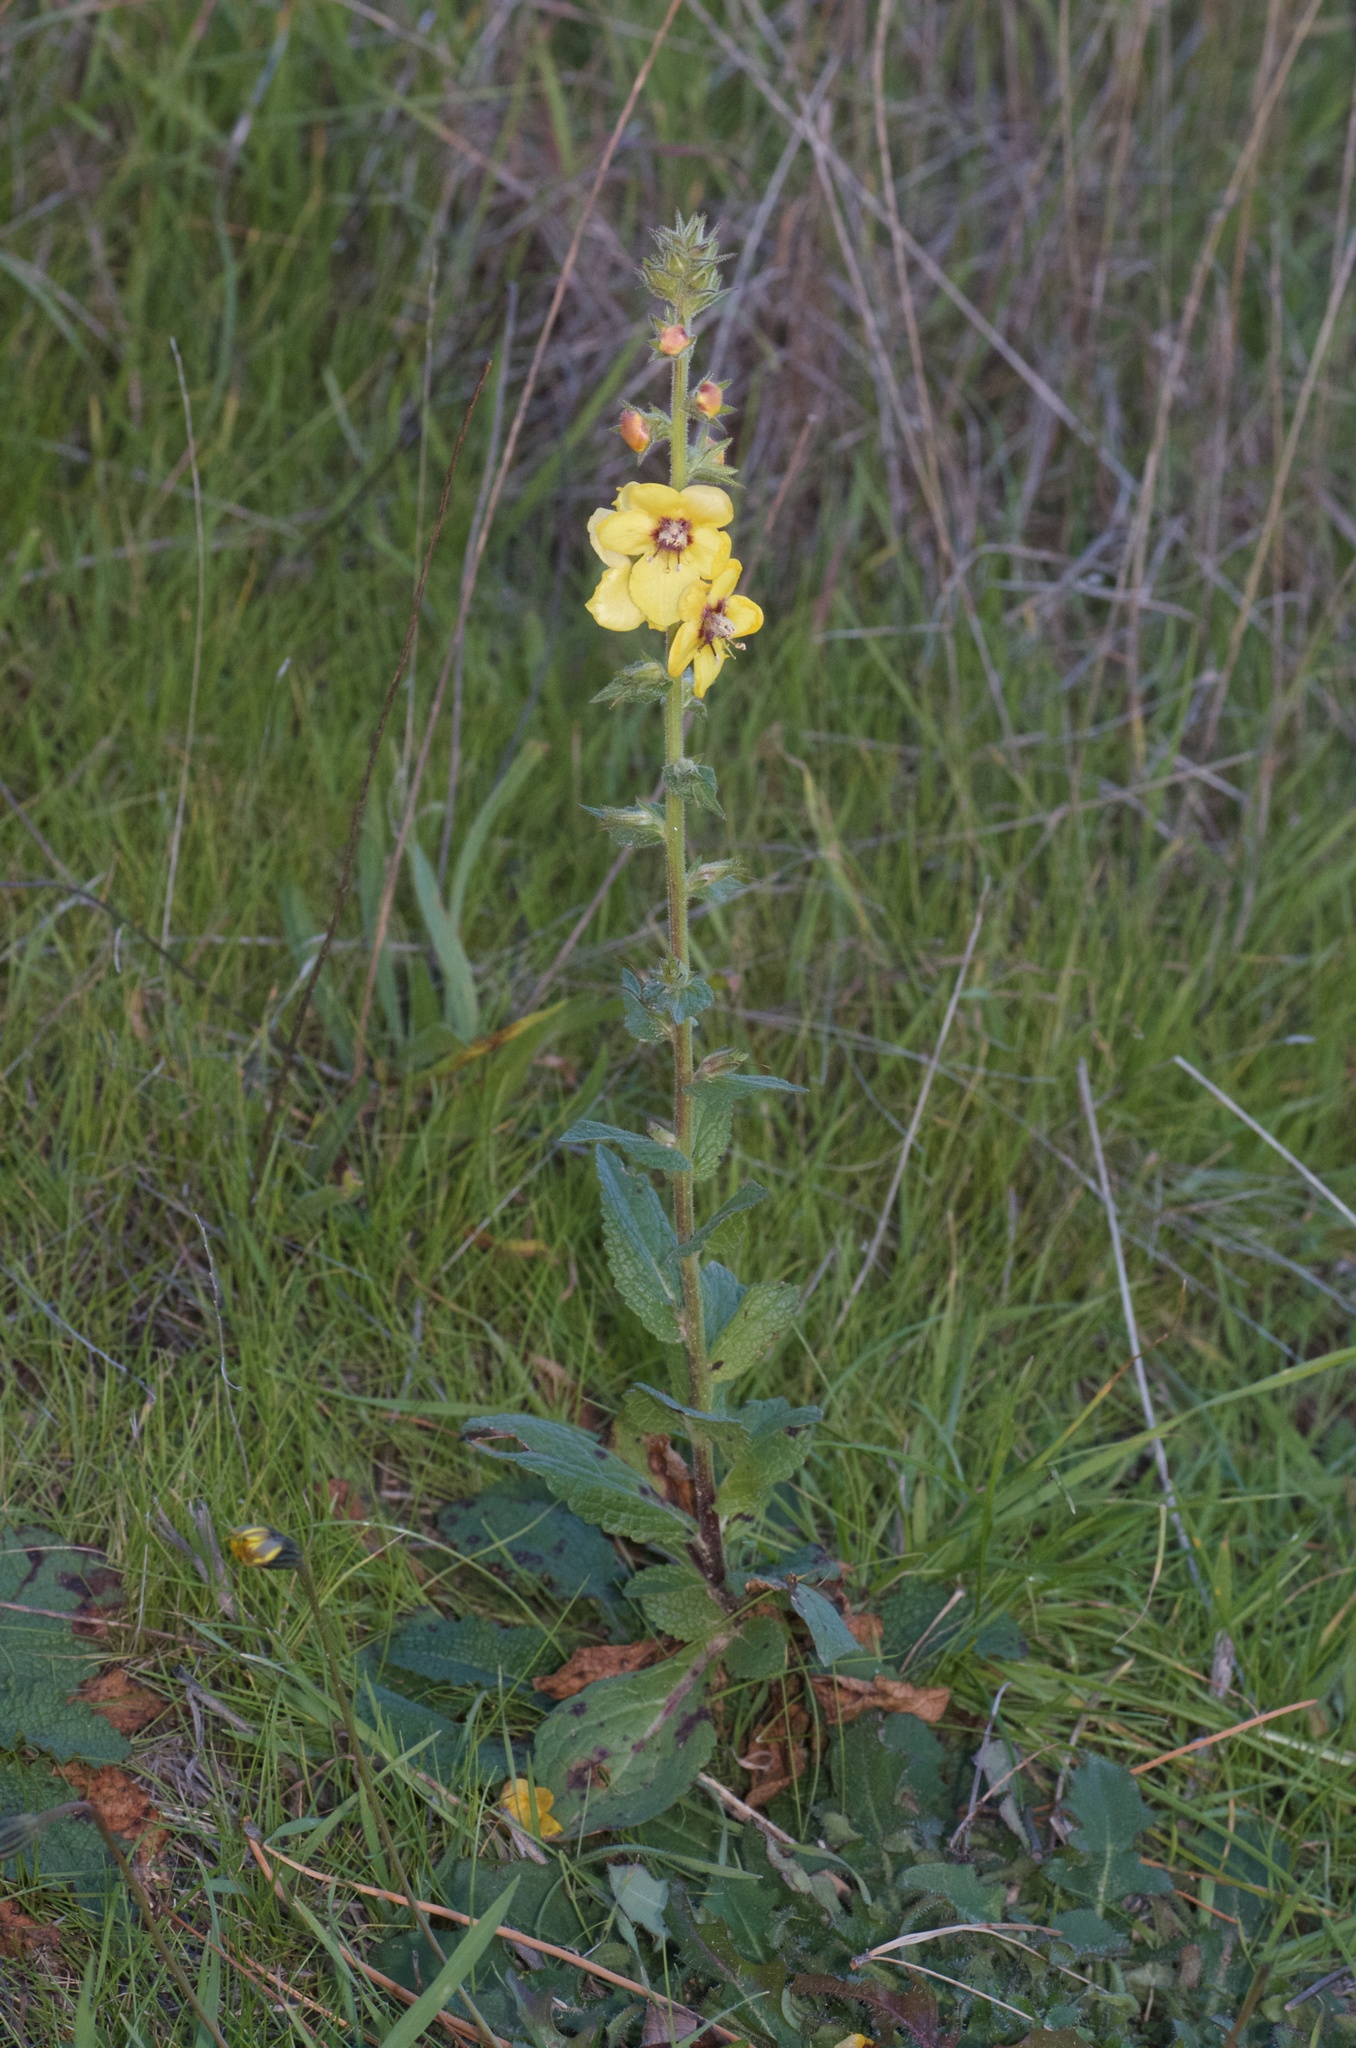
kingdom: Plantae
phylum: Tracheophyta
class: Magnoliopsida
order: Lamiales
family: Scrophulariaceae
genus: Verbascum
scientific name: Verbascum virgatum
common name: Twiggy mullein
